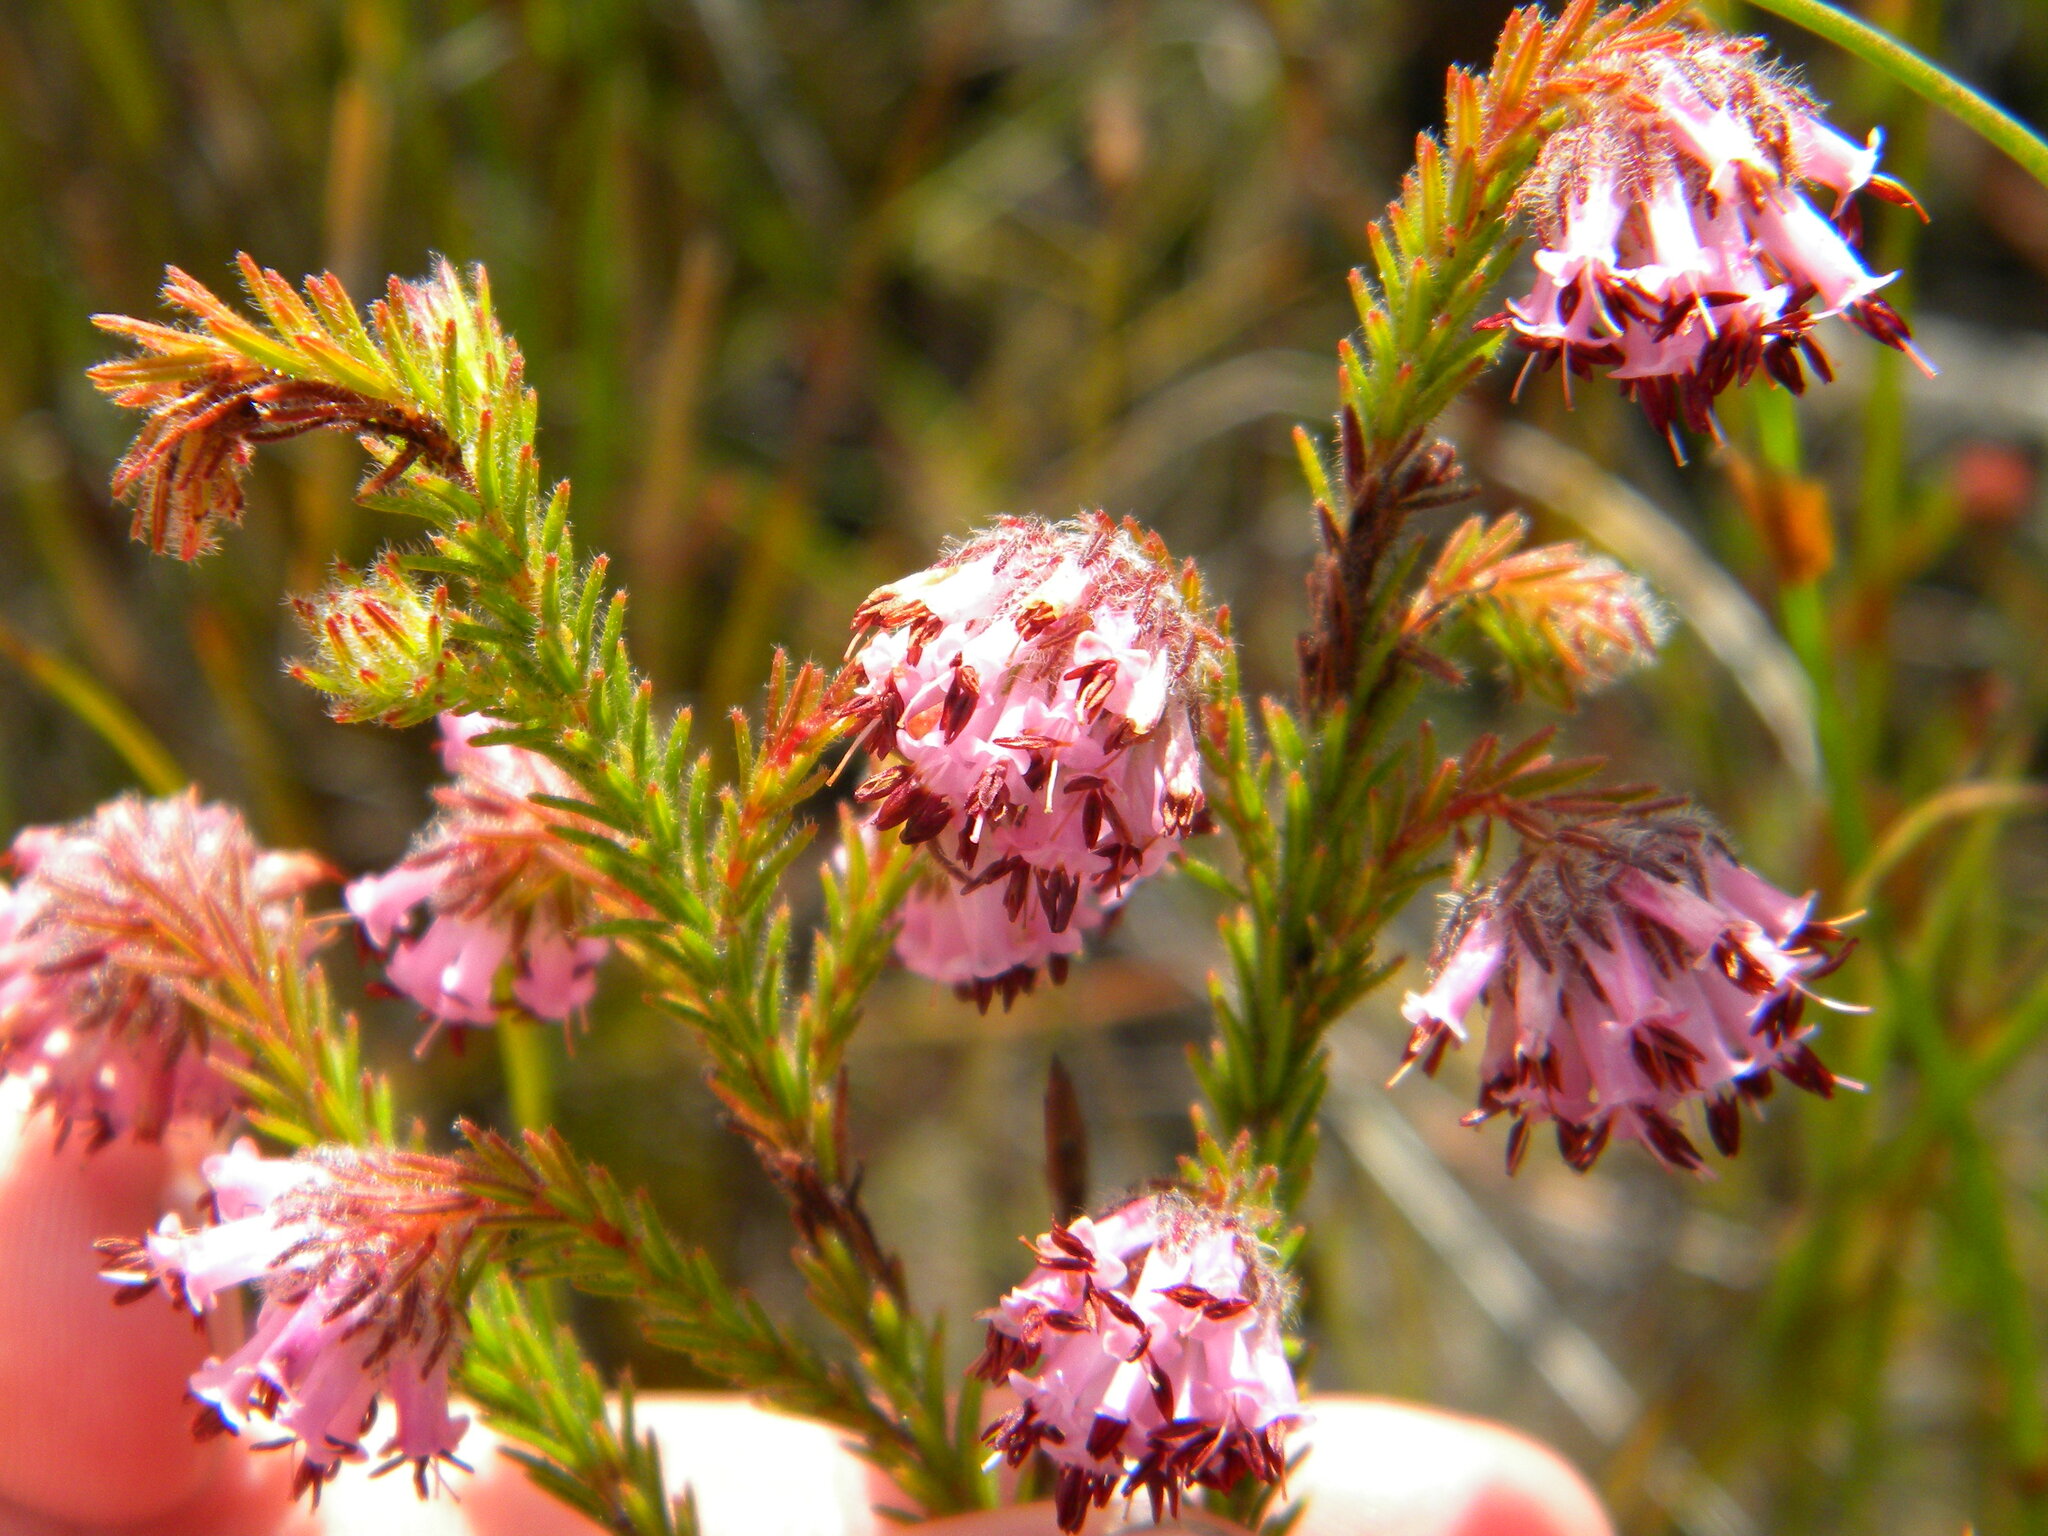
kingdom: Plantae
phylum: Tracheophyta
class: Magnoliopsida
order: Ericales
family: Ericaceae
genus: Erica
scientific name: Erica labialis
